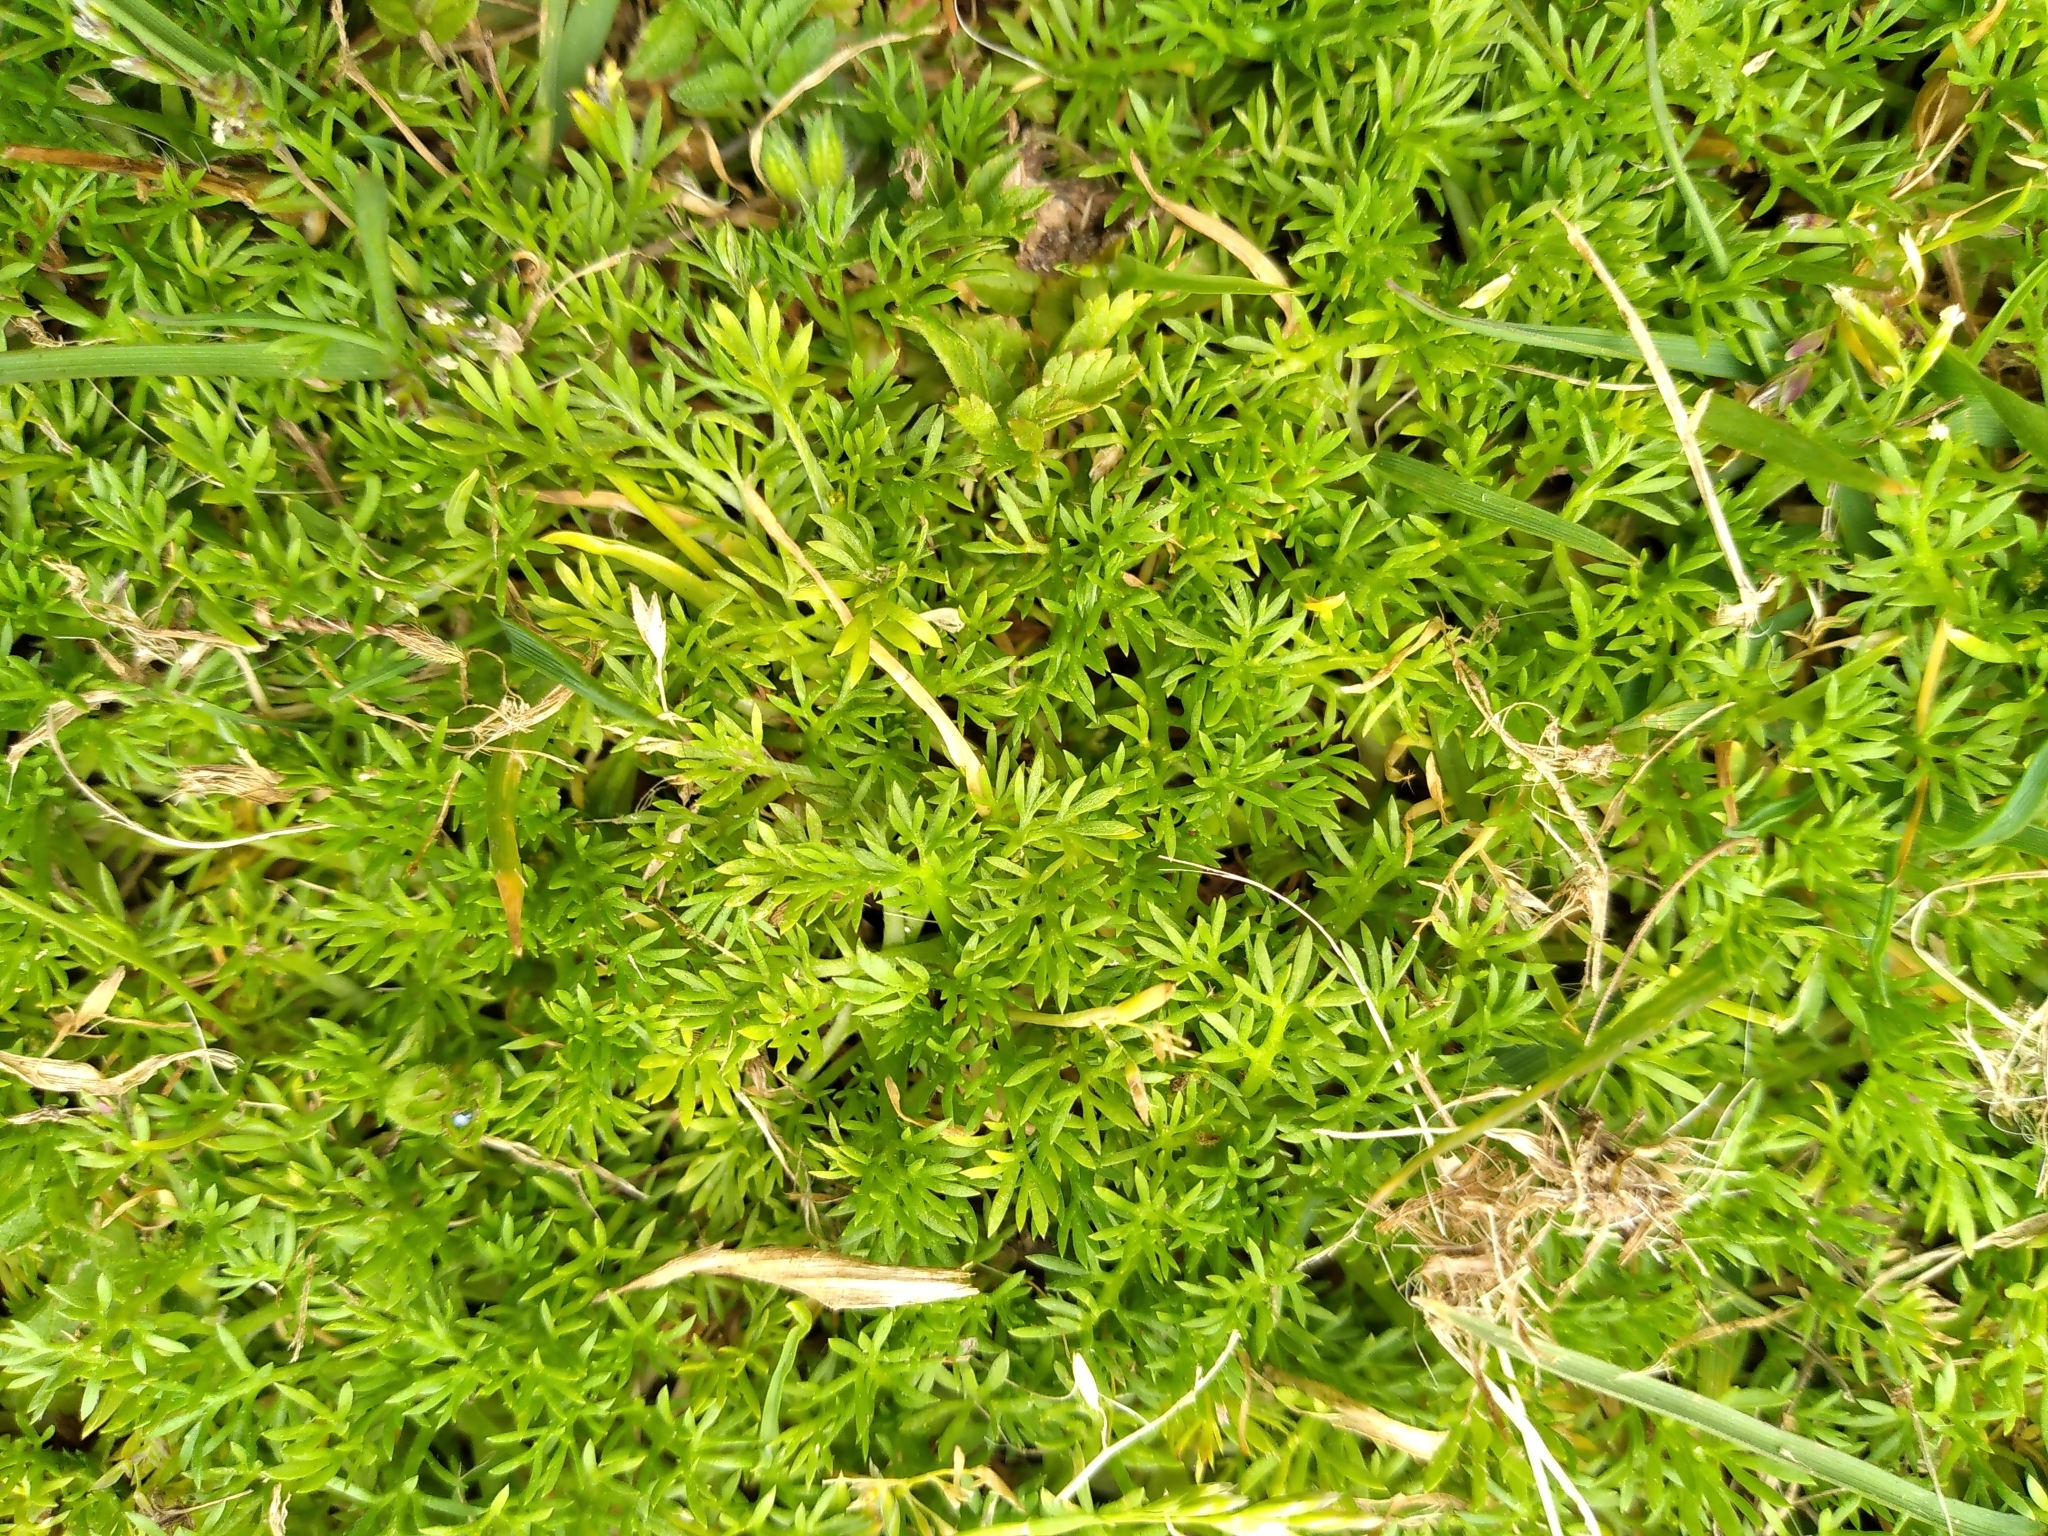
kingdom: Plantae
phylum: Tracheophyta
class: Magnoliopsida
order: Asterales
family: Asteraceae
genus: Soliva
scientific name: Soliva sessilis
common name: Field burrweed
